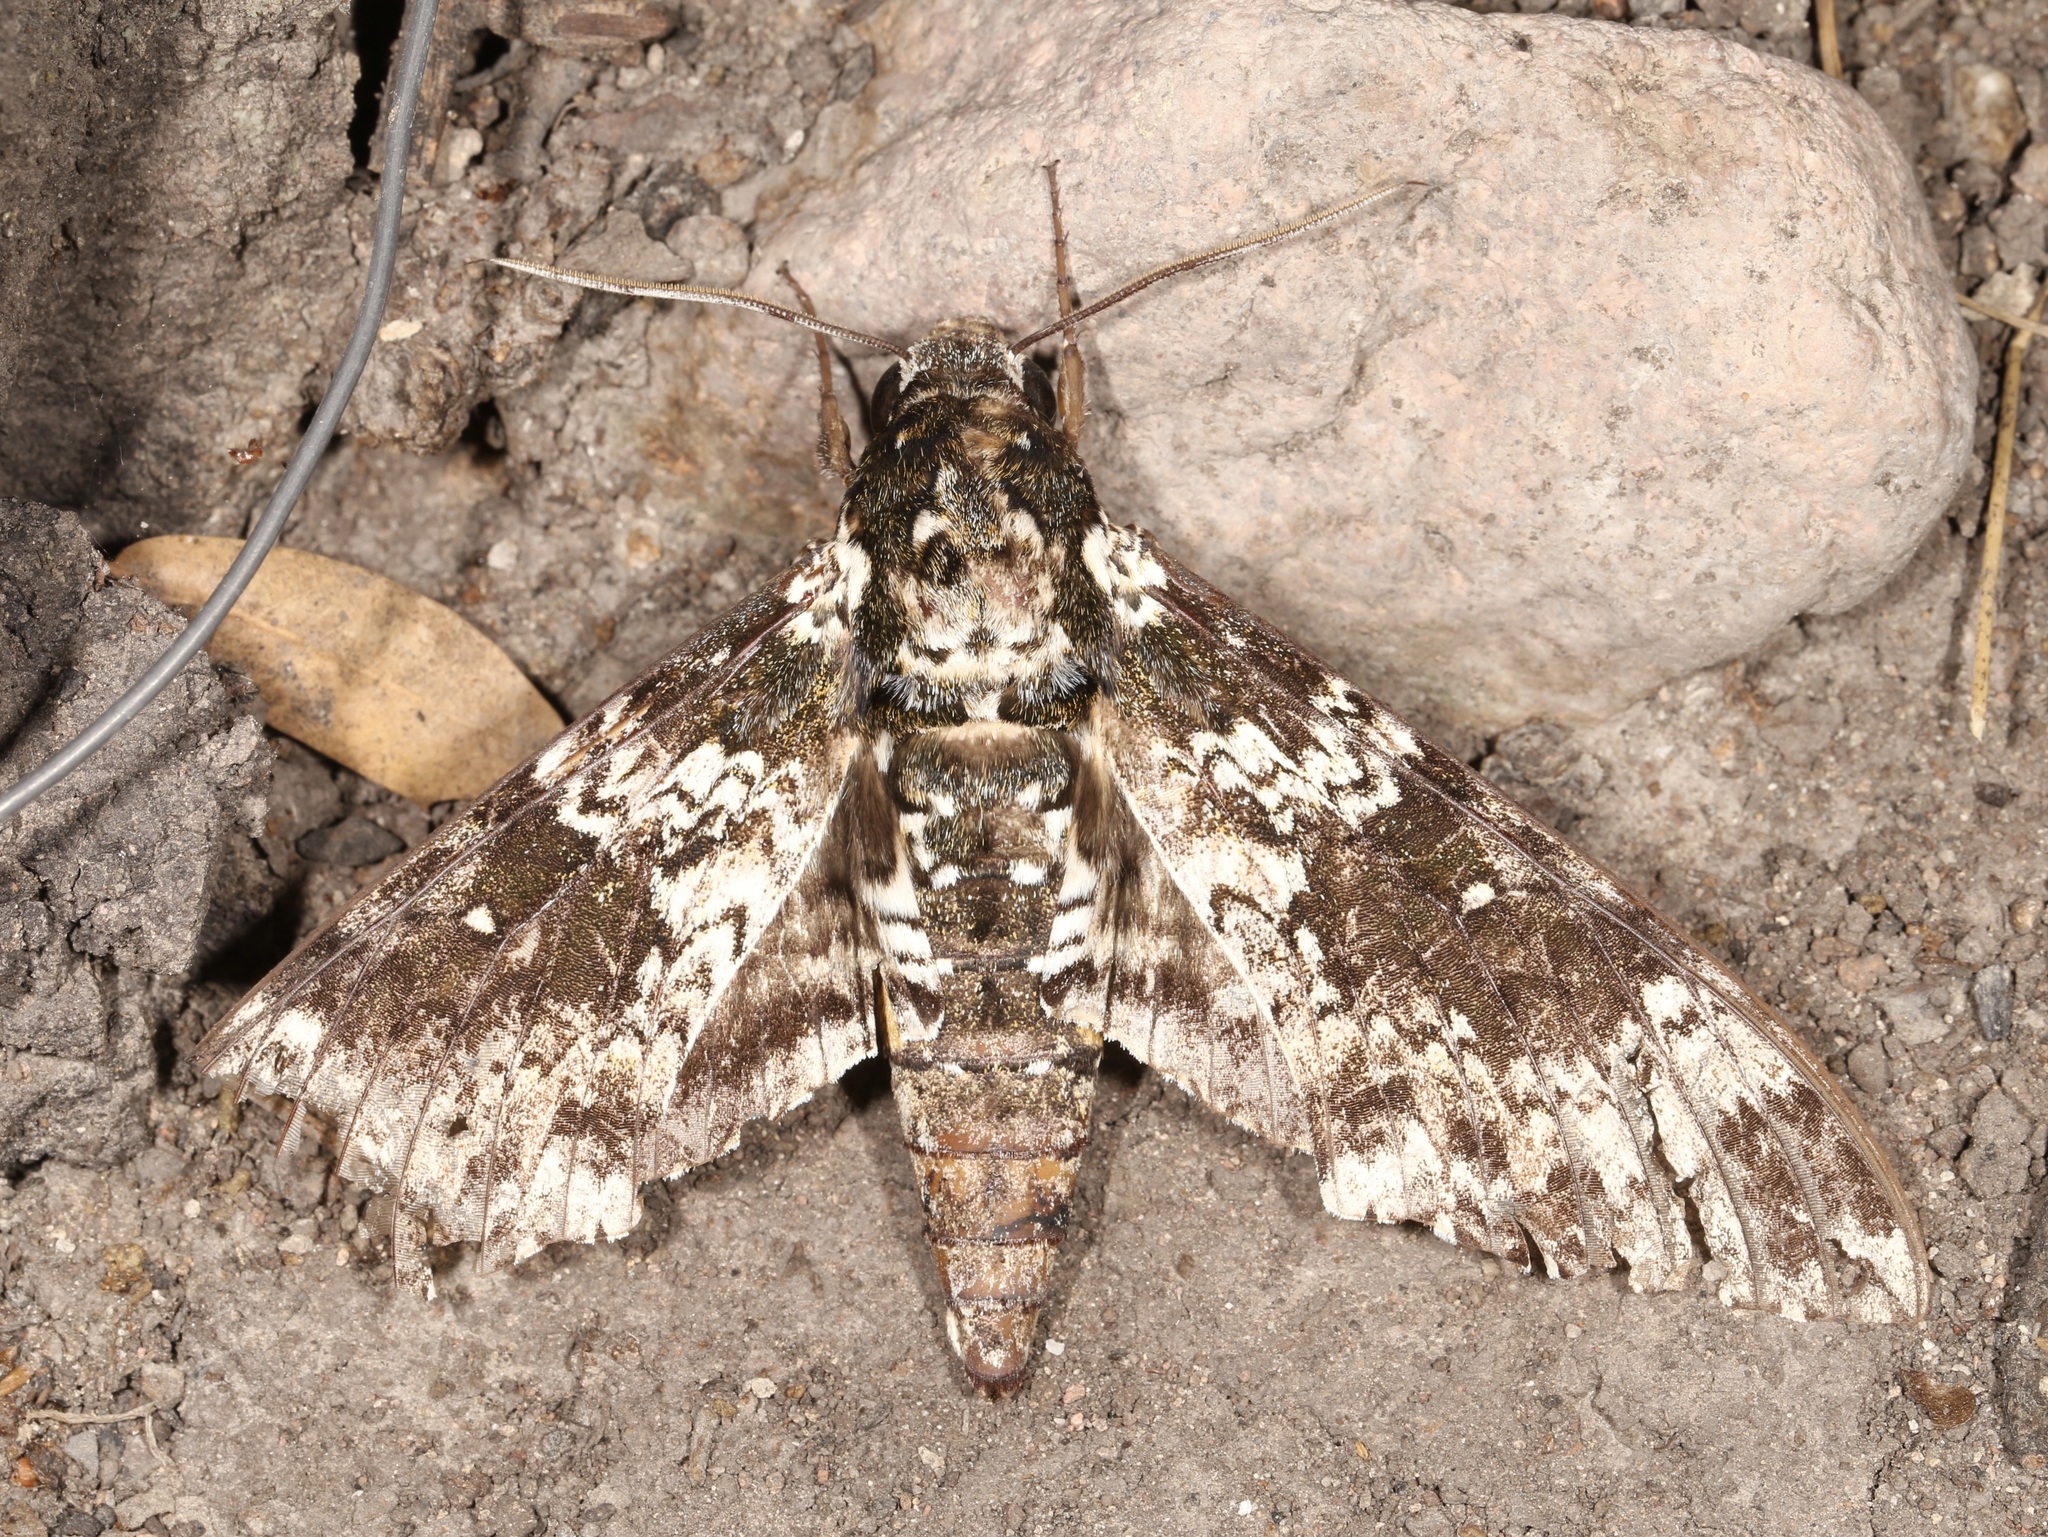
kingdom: Animalia
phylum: Arthropoda
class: Insecta
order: Lepidoptera
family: Sphingidae
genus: Manduca
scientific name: Manduca rustica
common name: Rustic sphinx
